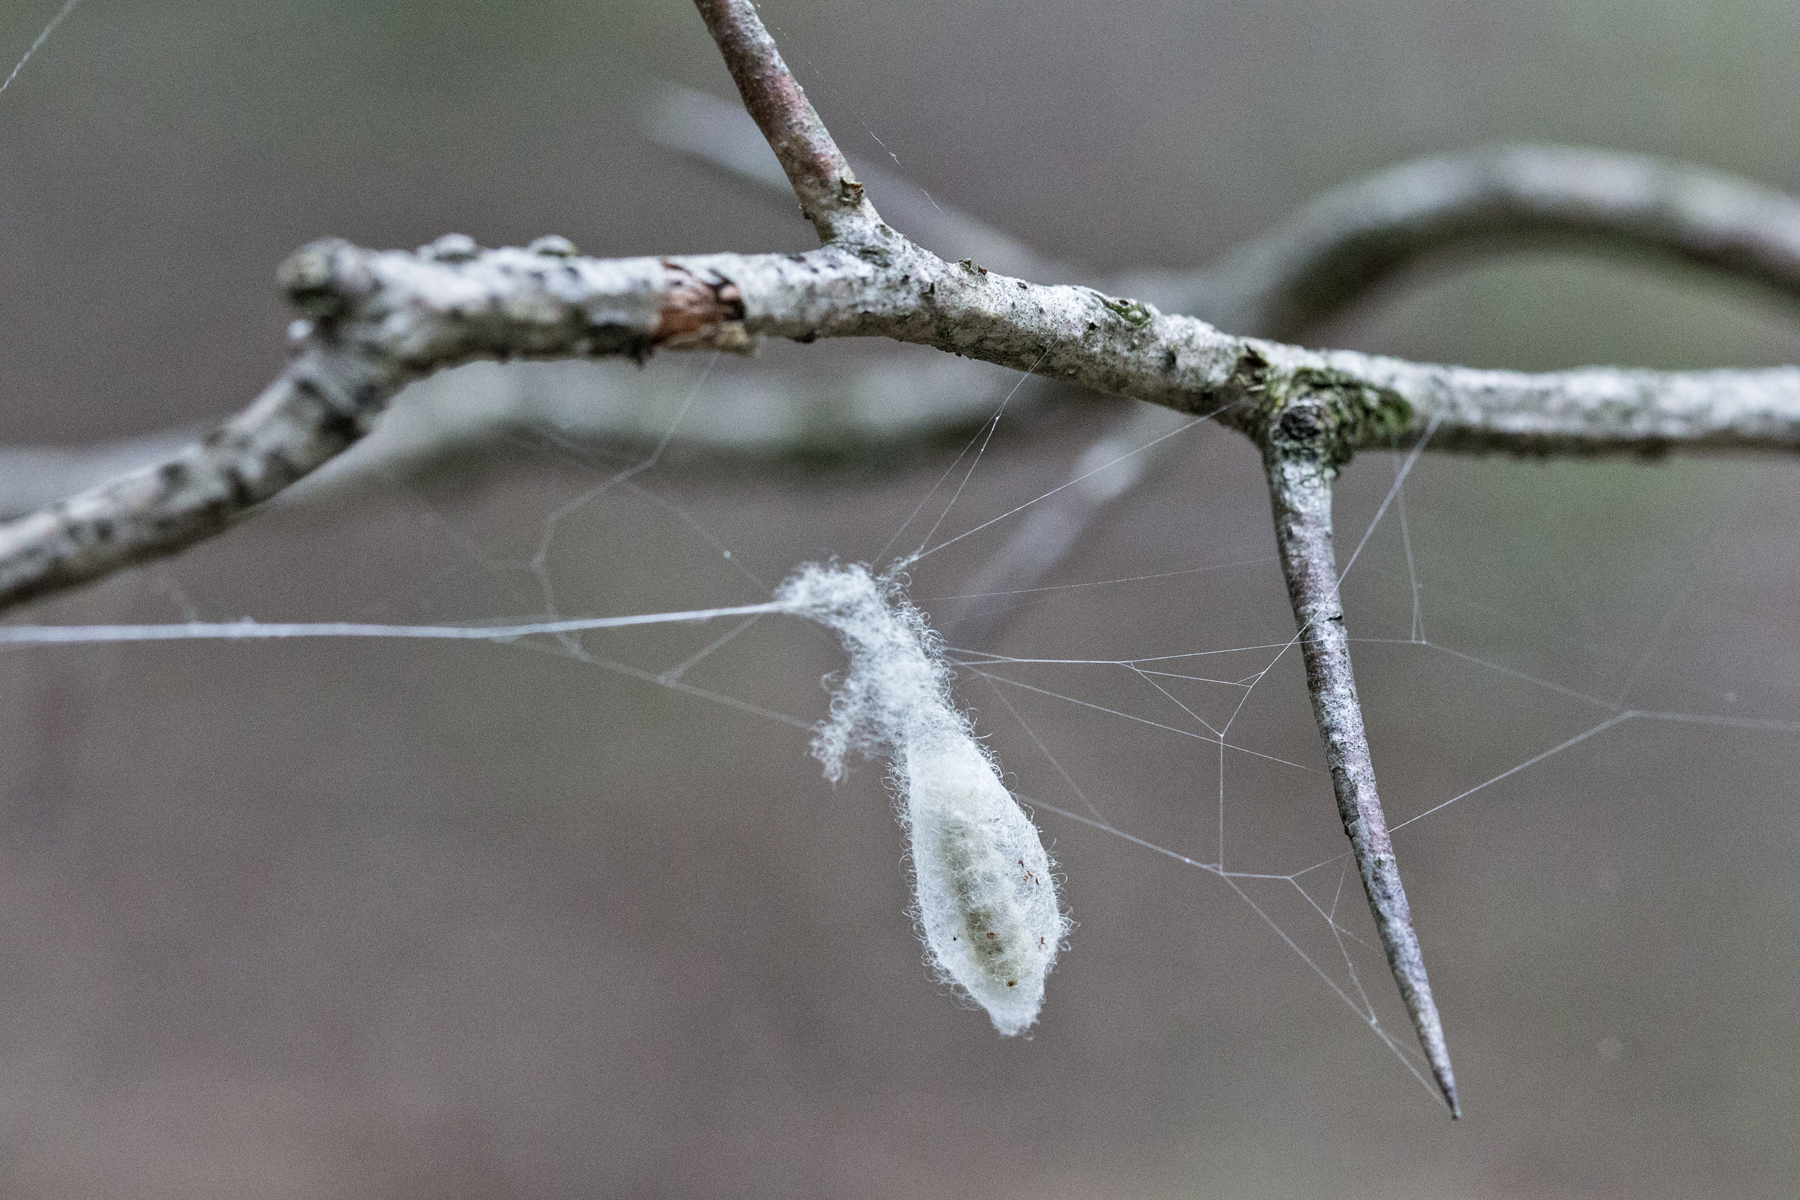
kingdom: Animalia
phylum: Arthropoda
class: Insecta
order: Hymenoptera
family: Ichneumonidae
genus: Acrotaphus
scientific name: Acrotaphus wiltii
